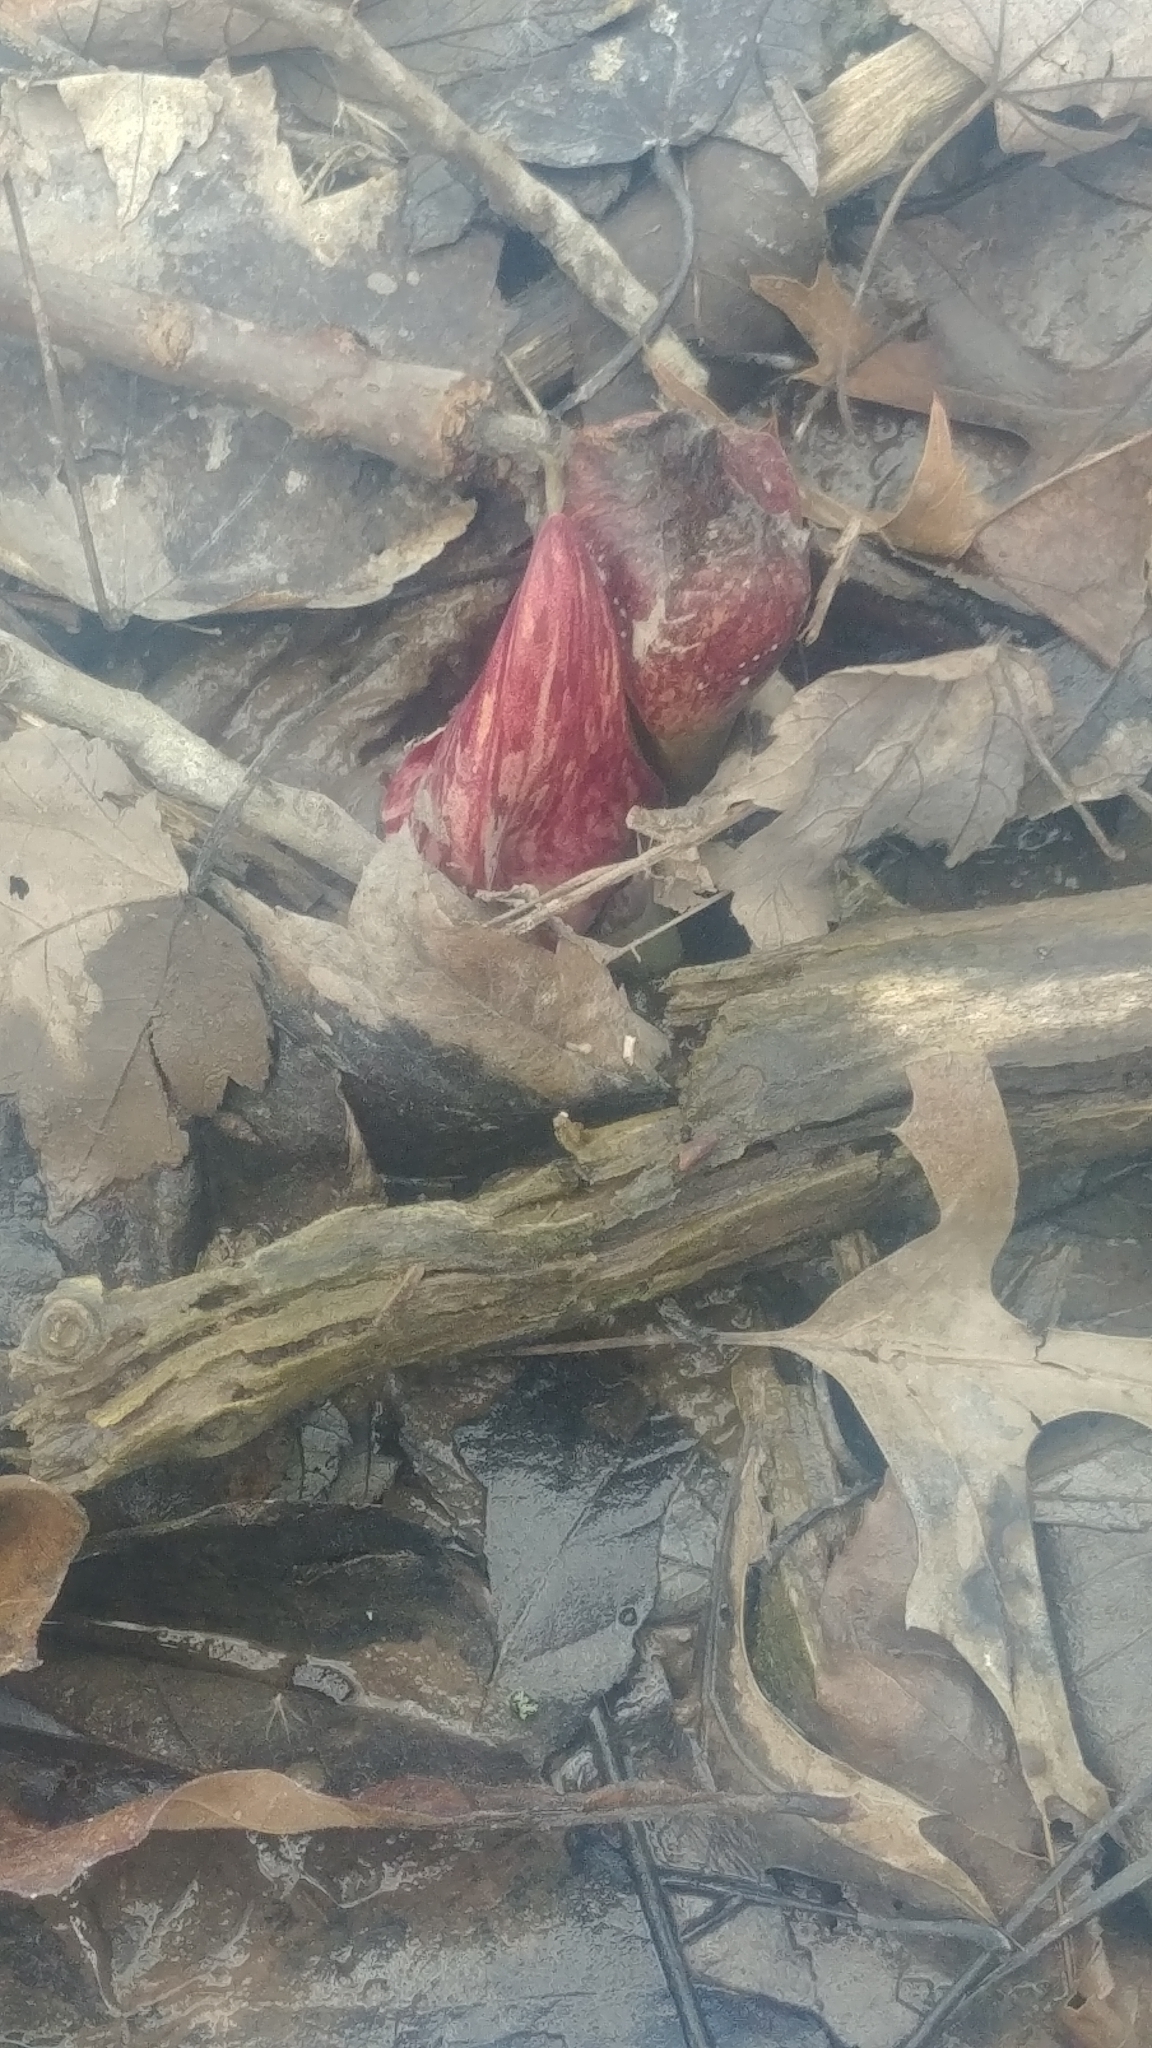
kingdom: Plantae
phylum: Tracheophyta
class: Liliopsida
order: Alismatales
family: Araceae
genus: Symplocarpus
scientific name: Symplocarpus foetidus
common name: Eastern skunk cabbage
